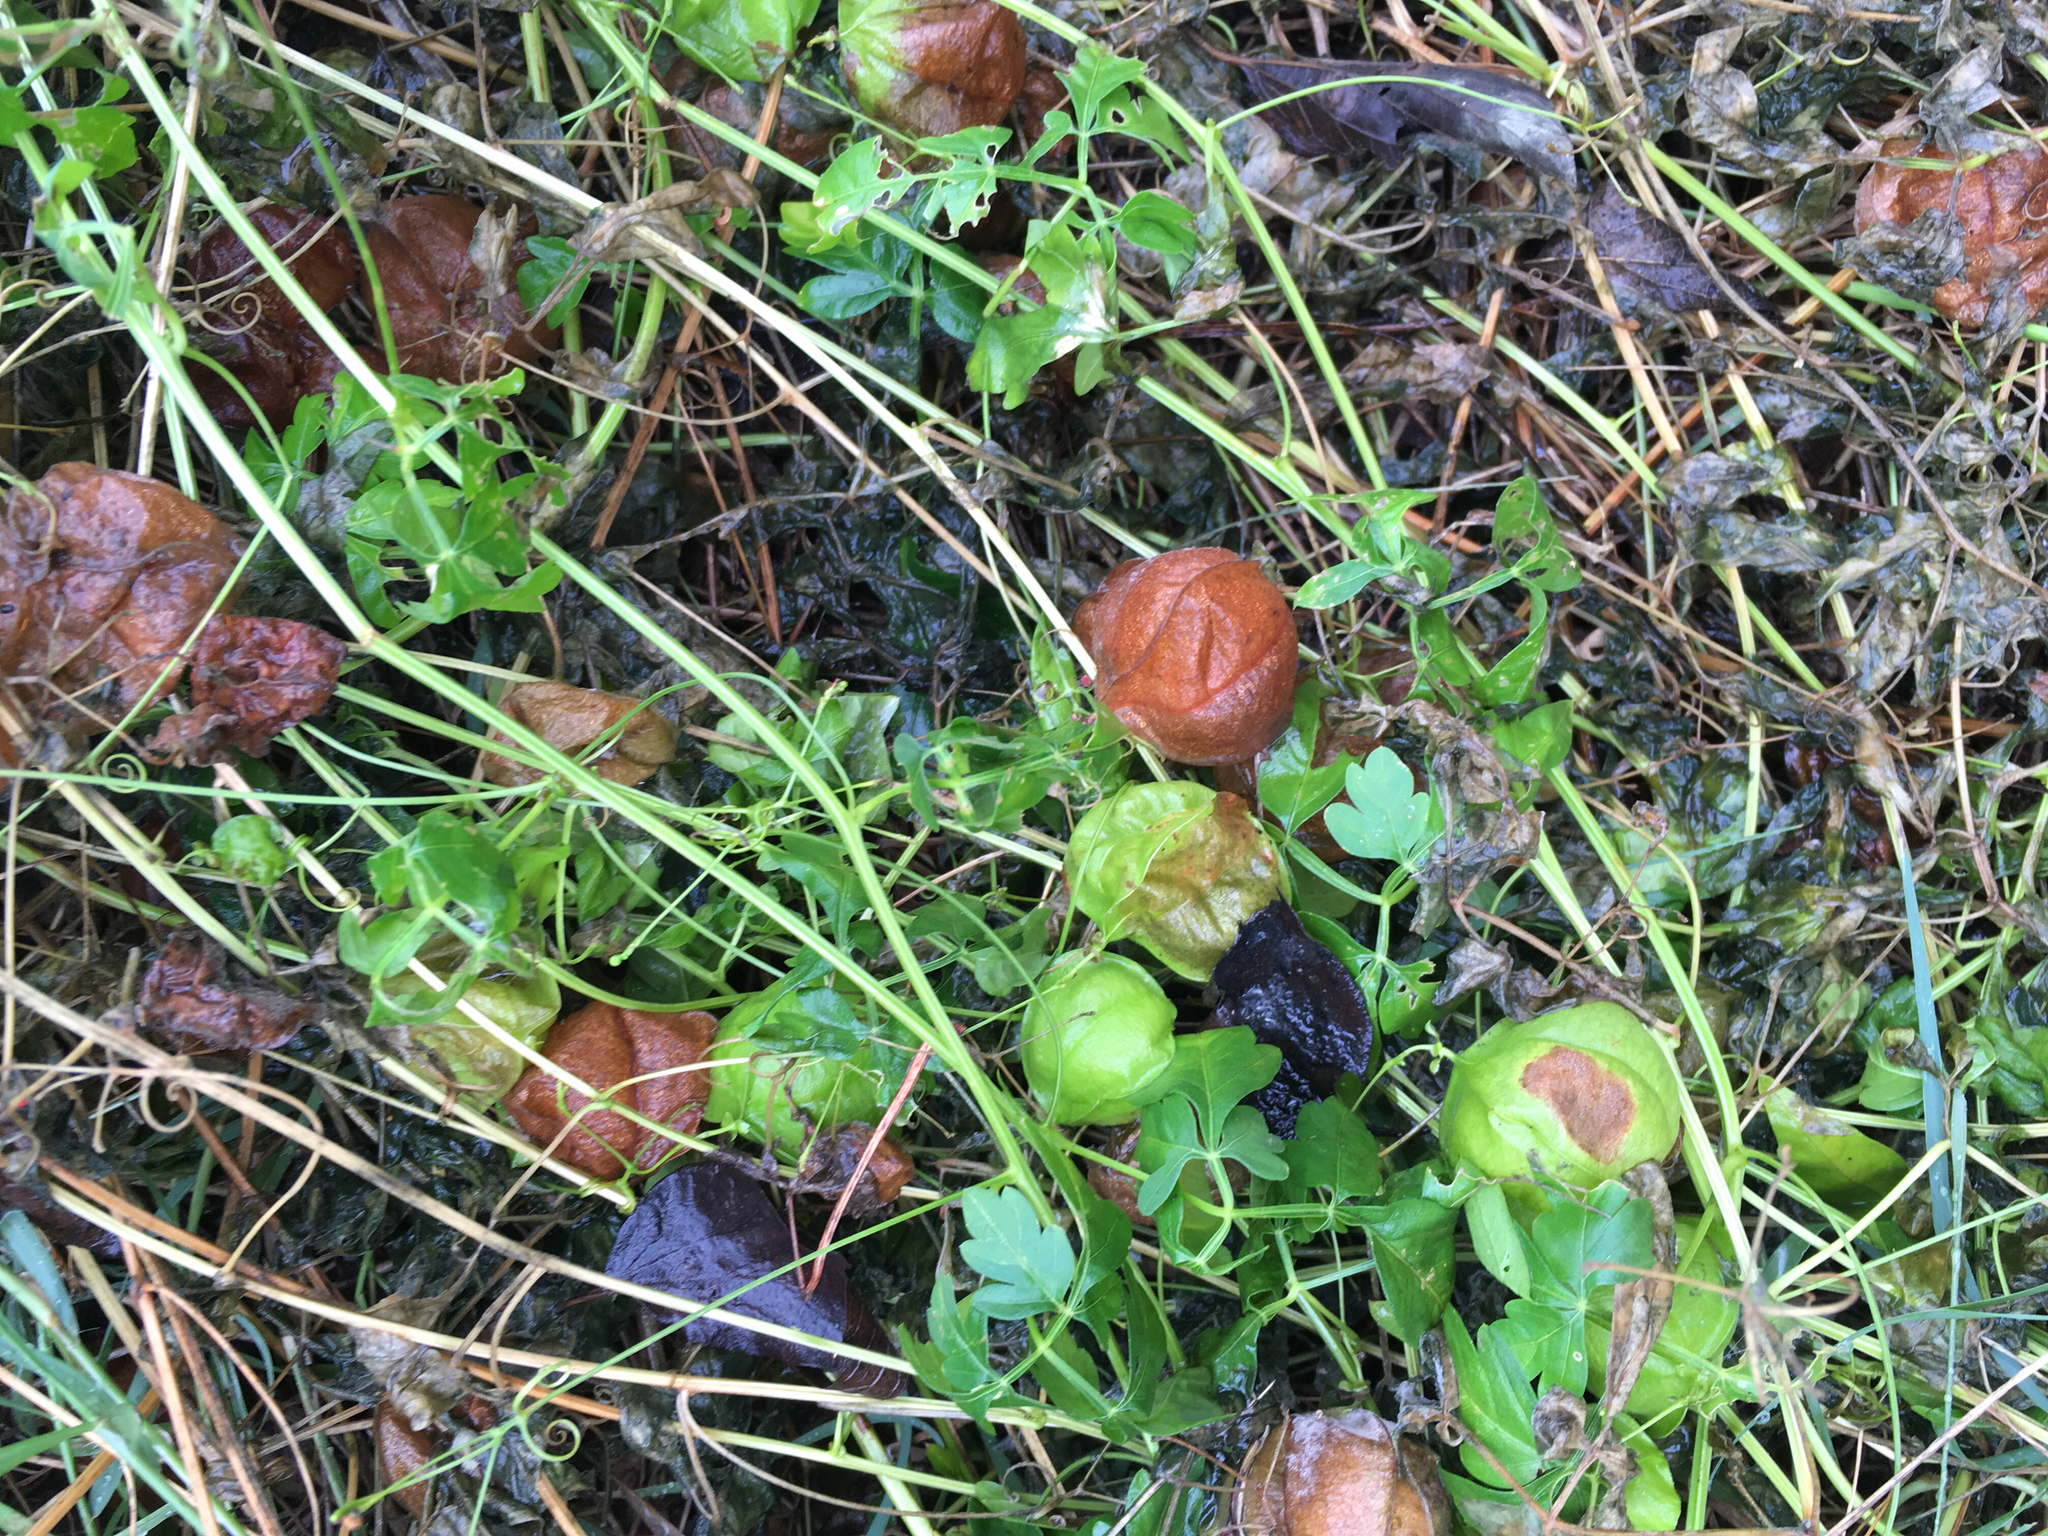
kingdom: Plantae
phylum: Tracheophyta
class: Magnoliopsida
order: Sapindales
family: Sapindaceae
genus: Cardiospermum
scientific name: Cardiospermum halicacabum
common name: Balloon vine
